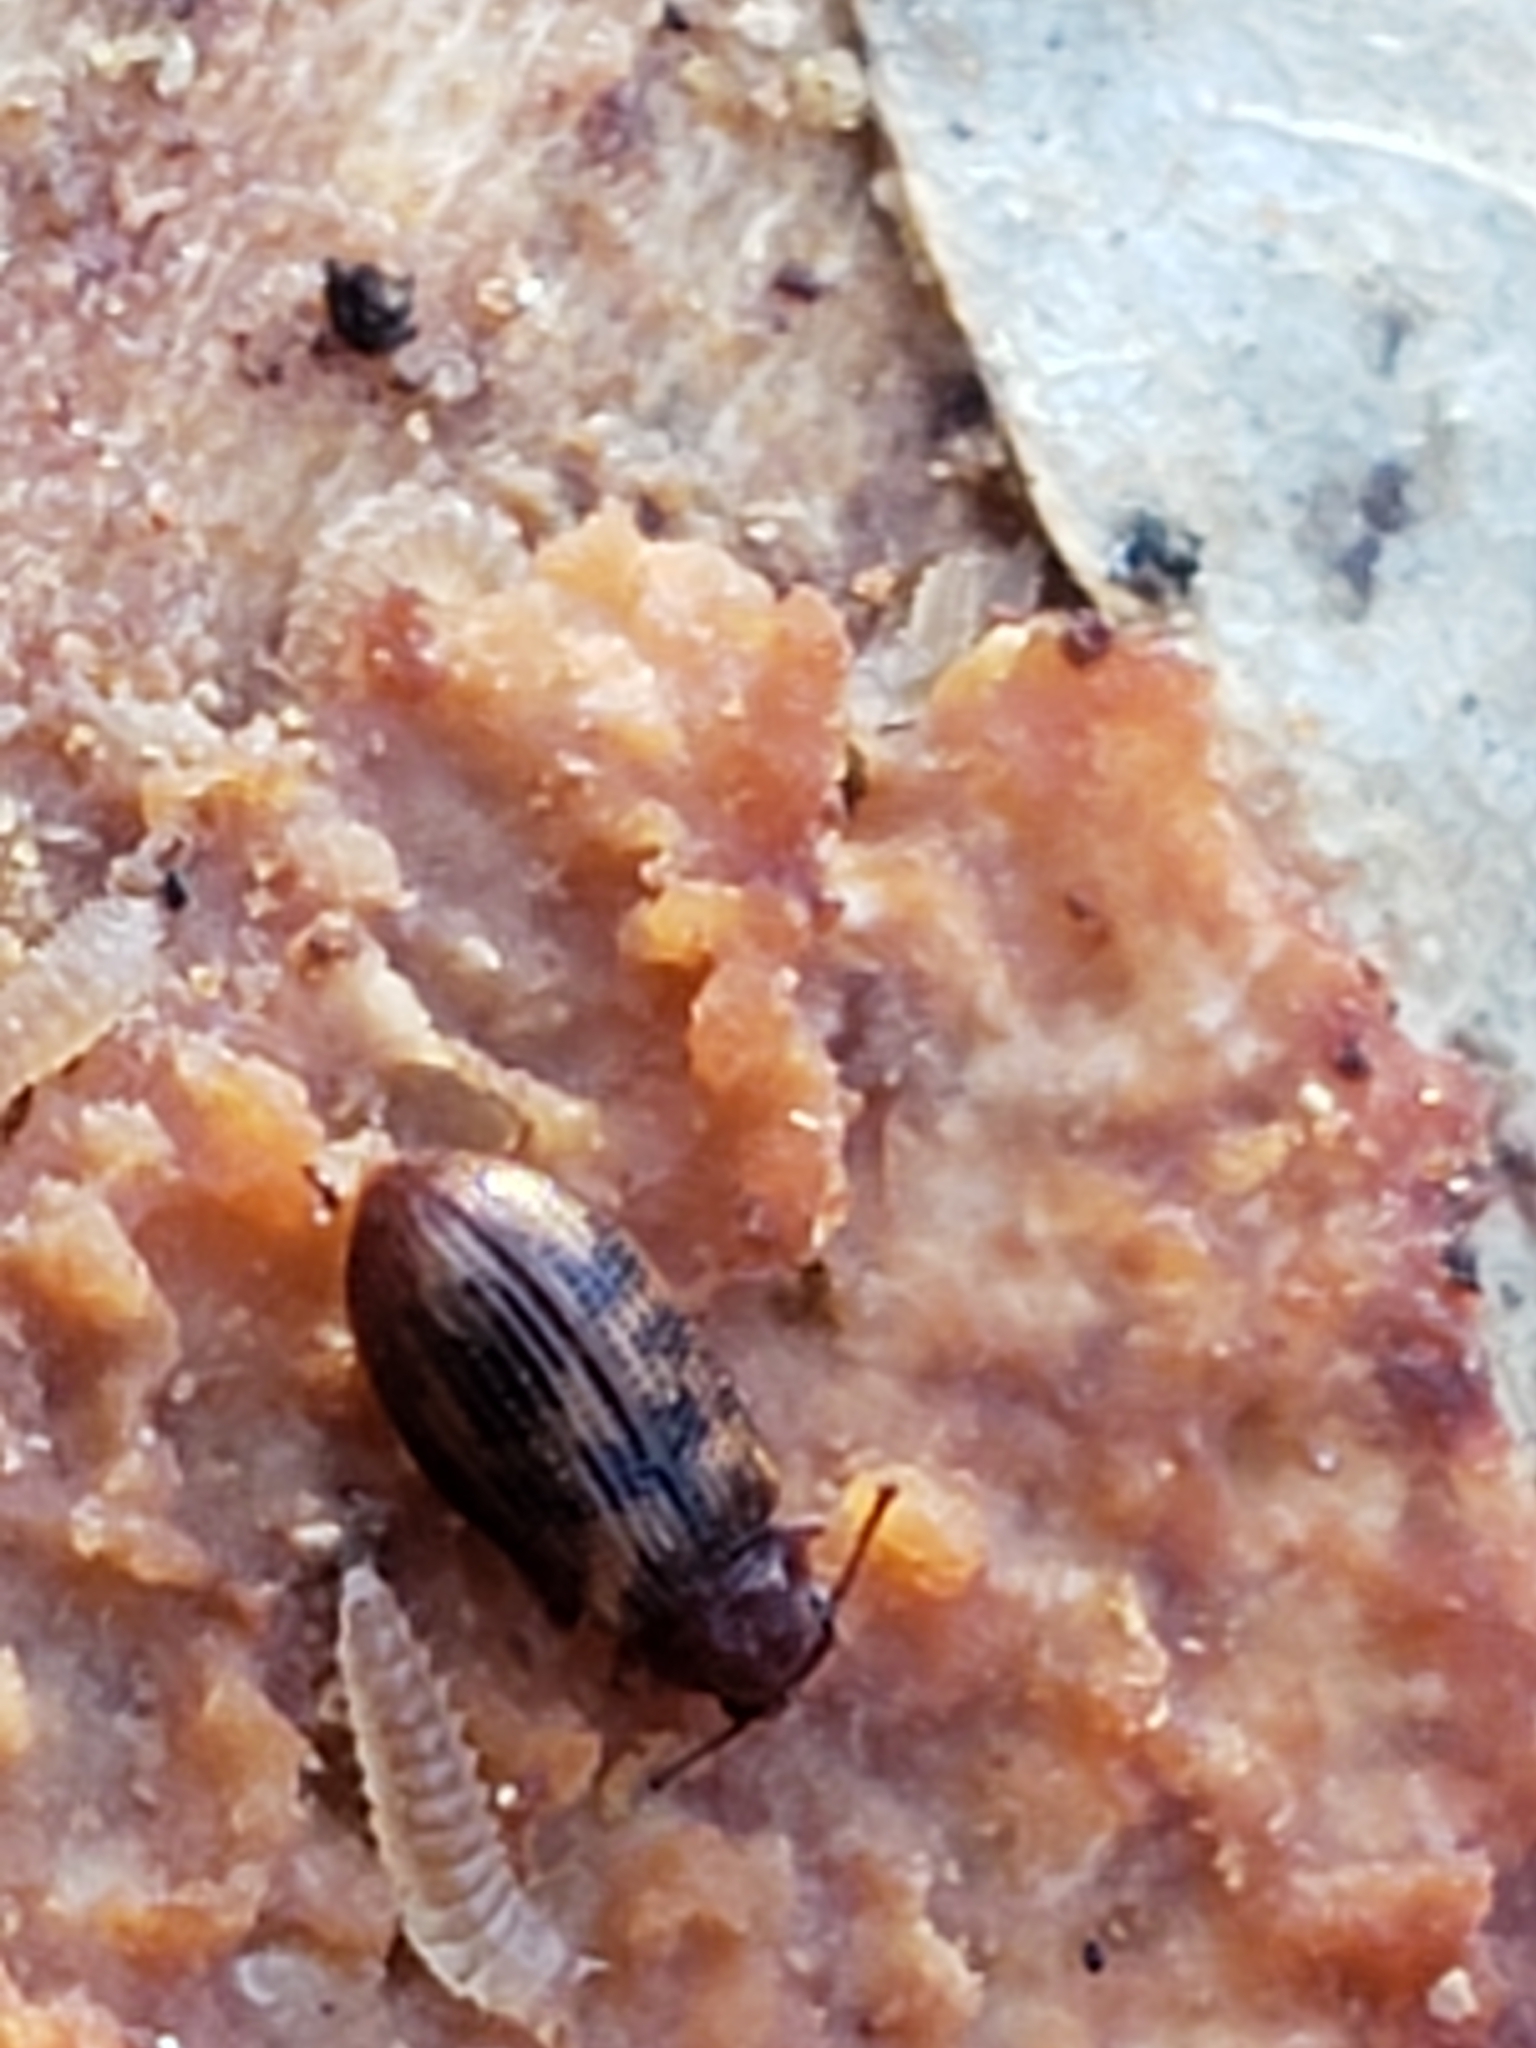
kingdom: Animalia
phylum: Arthropoda
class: Insecta
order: Coleoptera
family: Derodontidae
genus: Derodontus
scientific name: Derodontus esotericus
